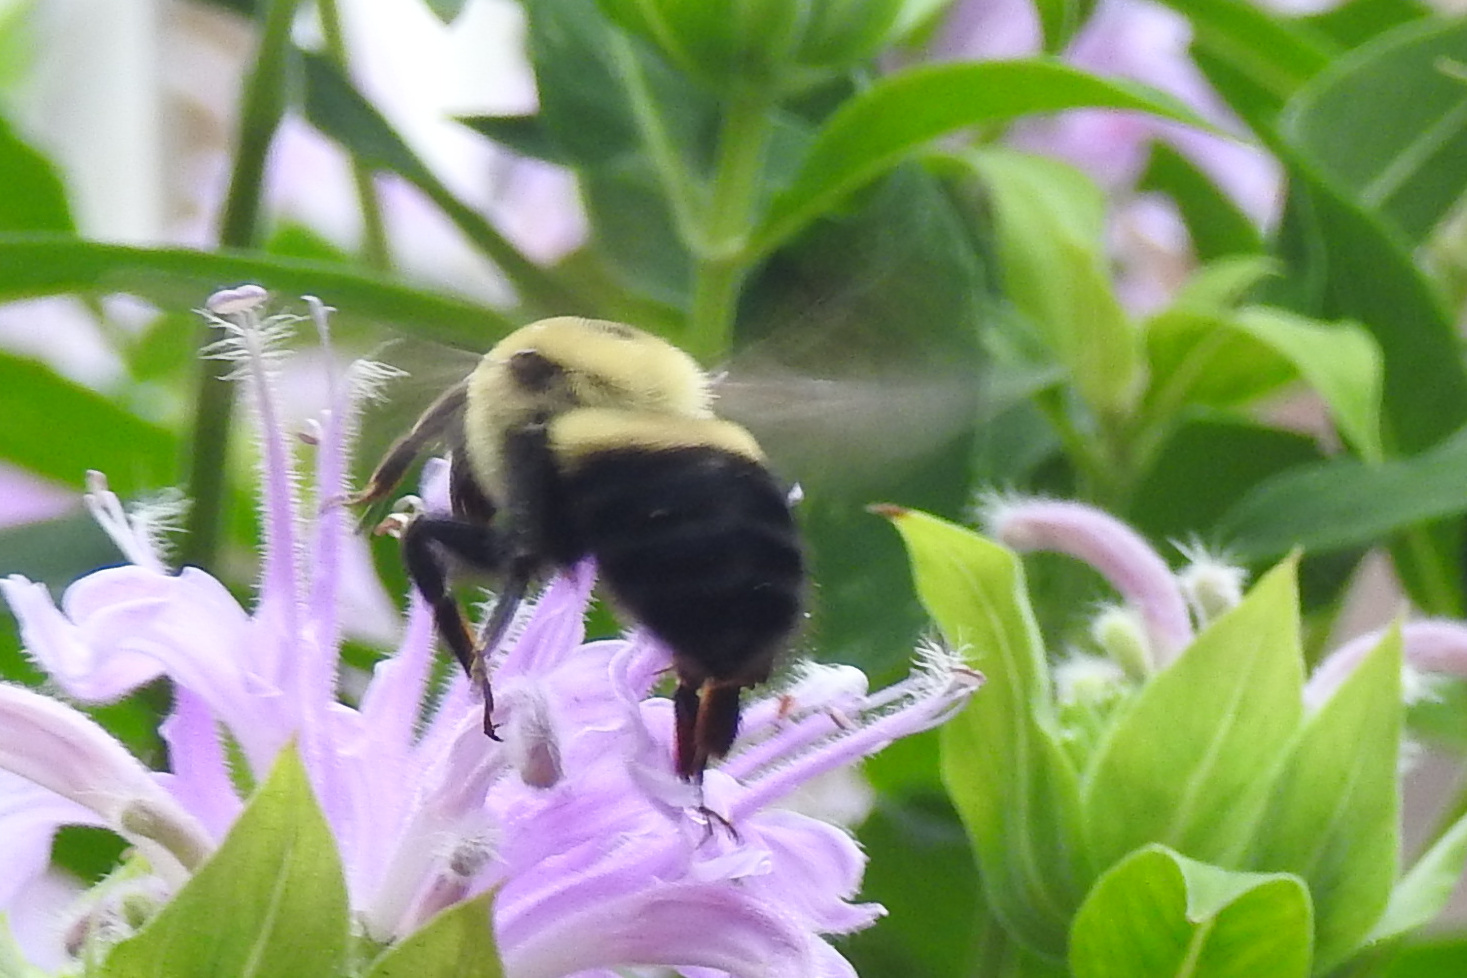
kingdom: Animalia
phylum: Arthropoda
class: Insecta
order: Hymenoptera
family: Apidae
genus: Bombus
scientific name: Bombus griseocollis
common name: Brown-belted bumble bee
